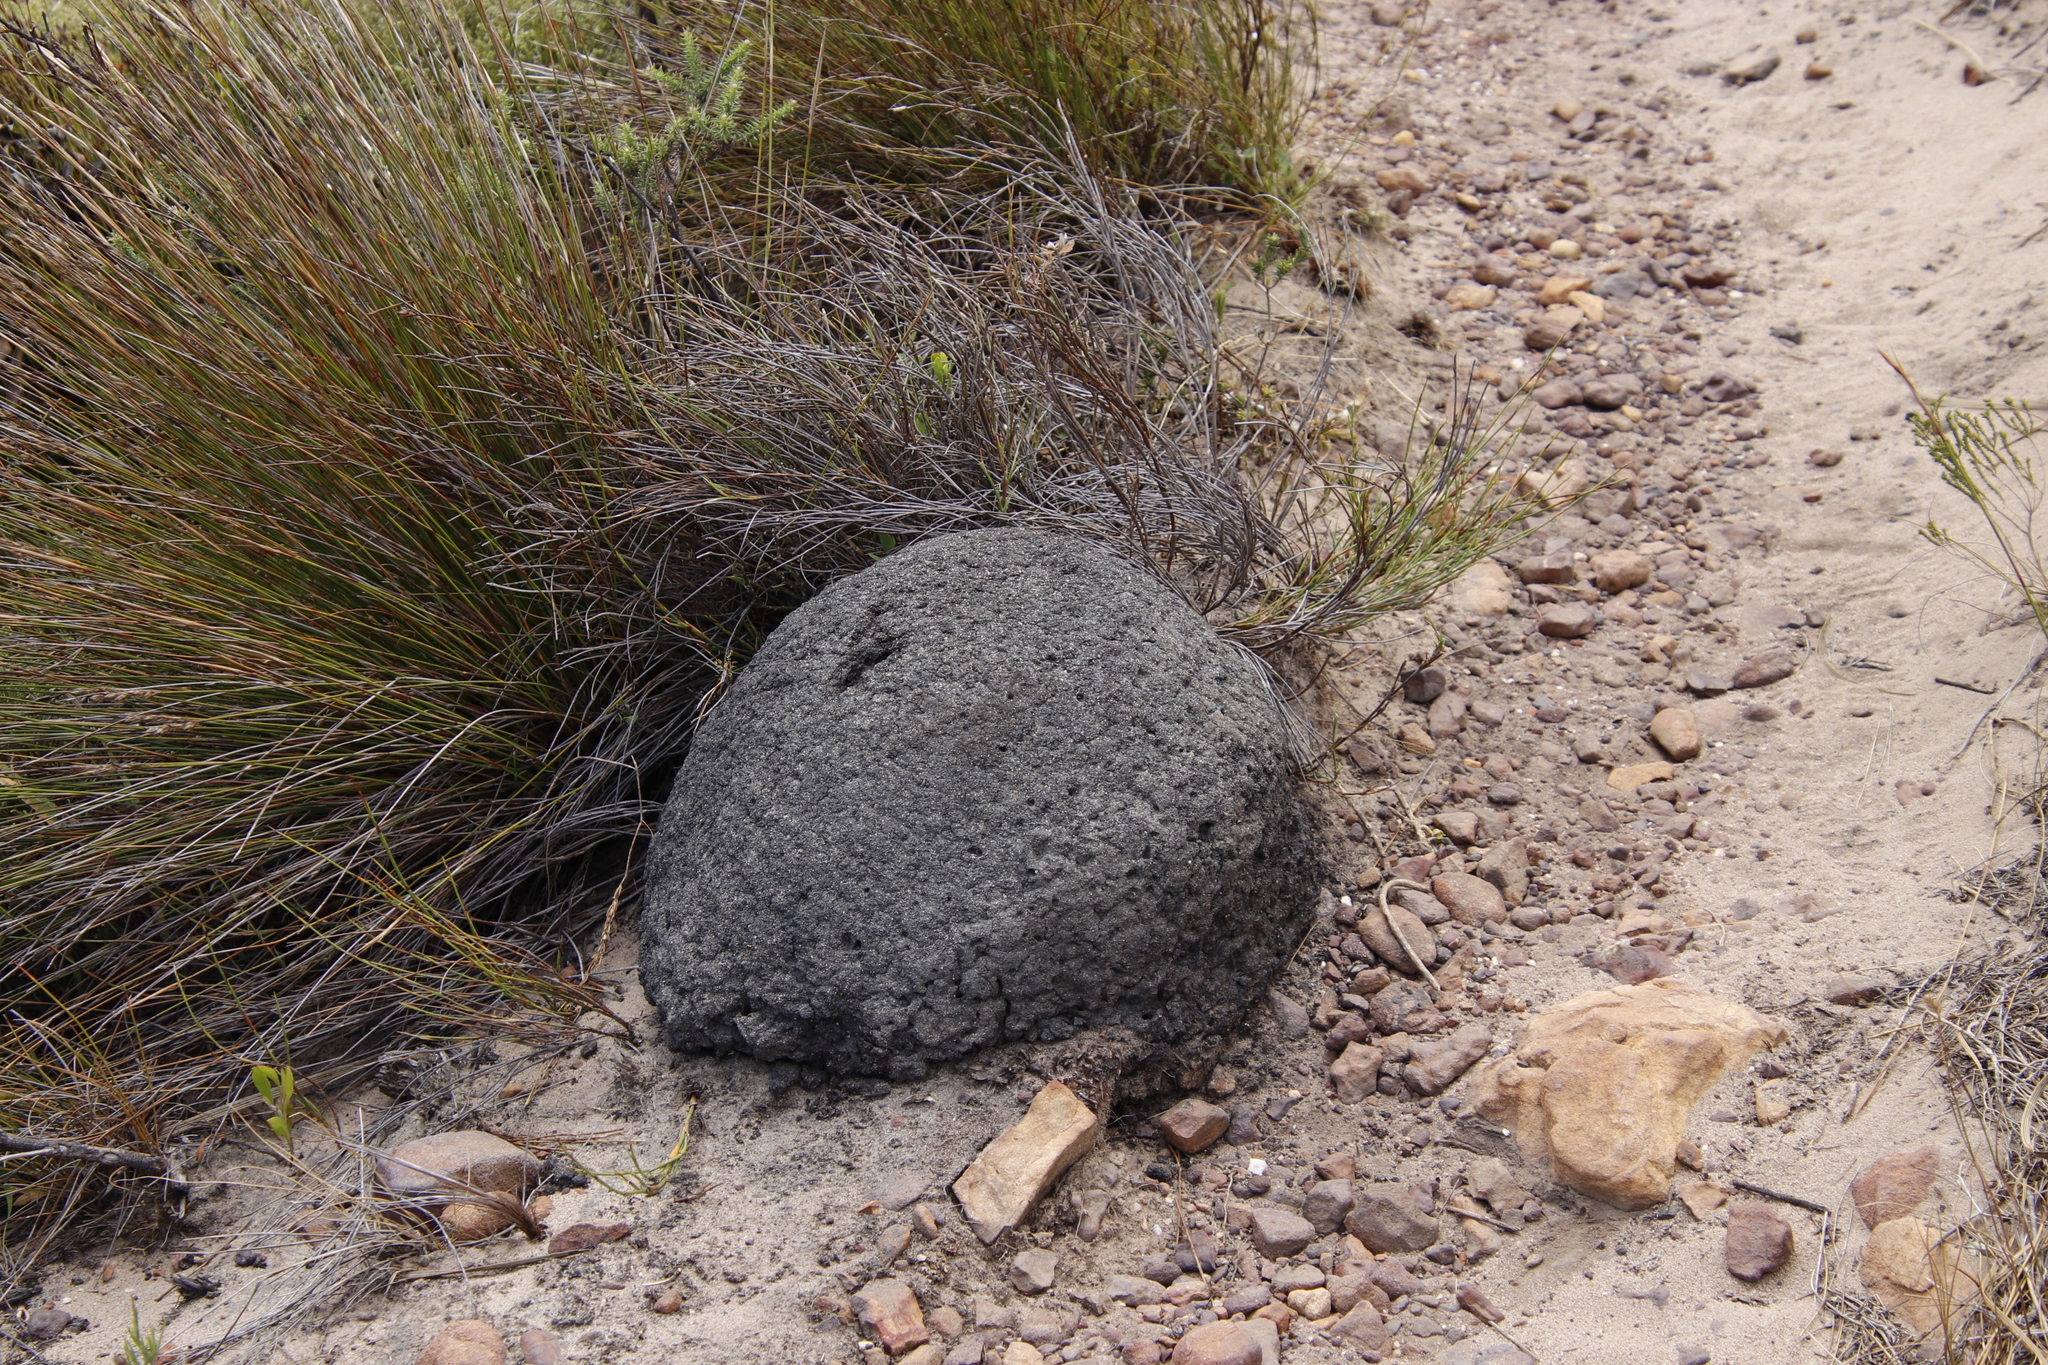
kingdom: Animalia
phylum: Arthropoda
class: Insecta
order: Blattodea
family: Termitidae
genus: Amitermes
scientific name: Amitermes hastatus
